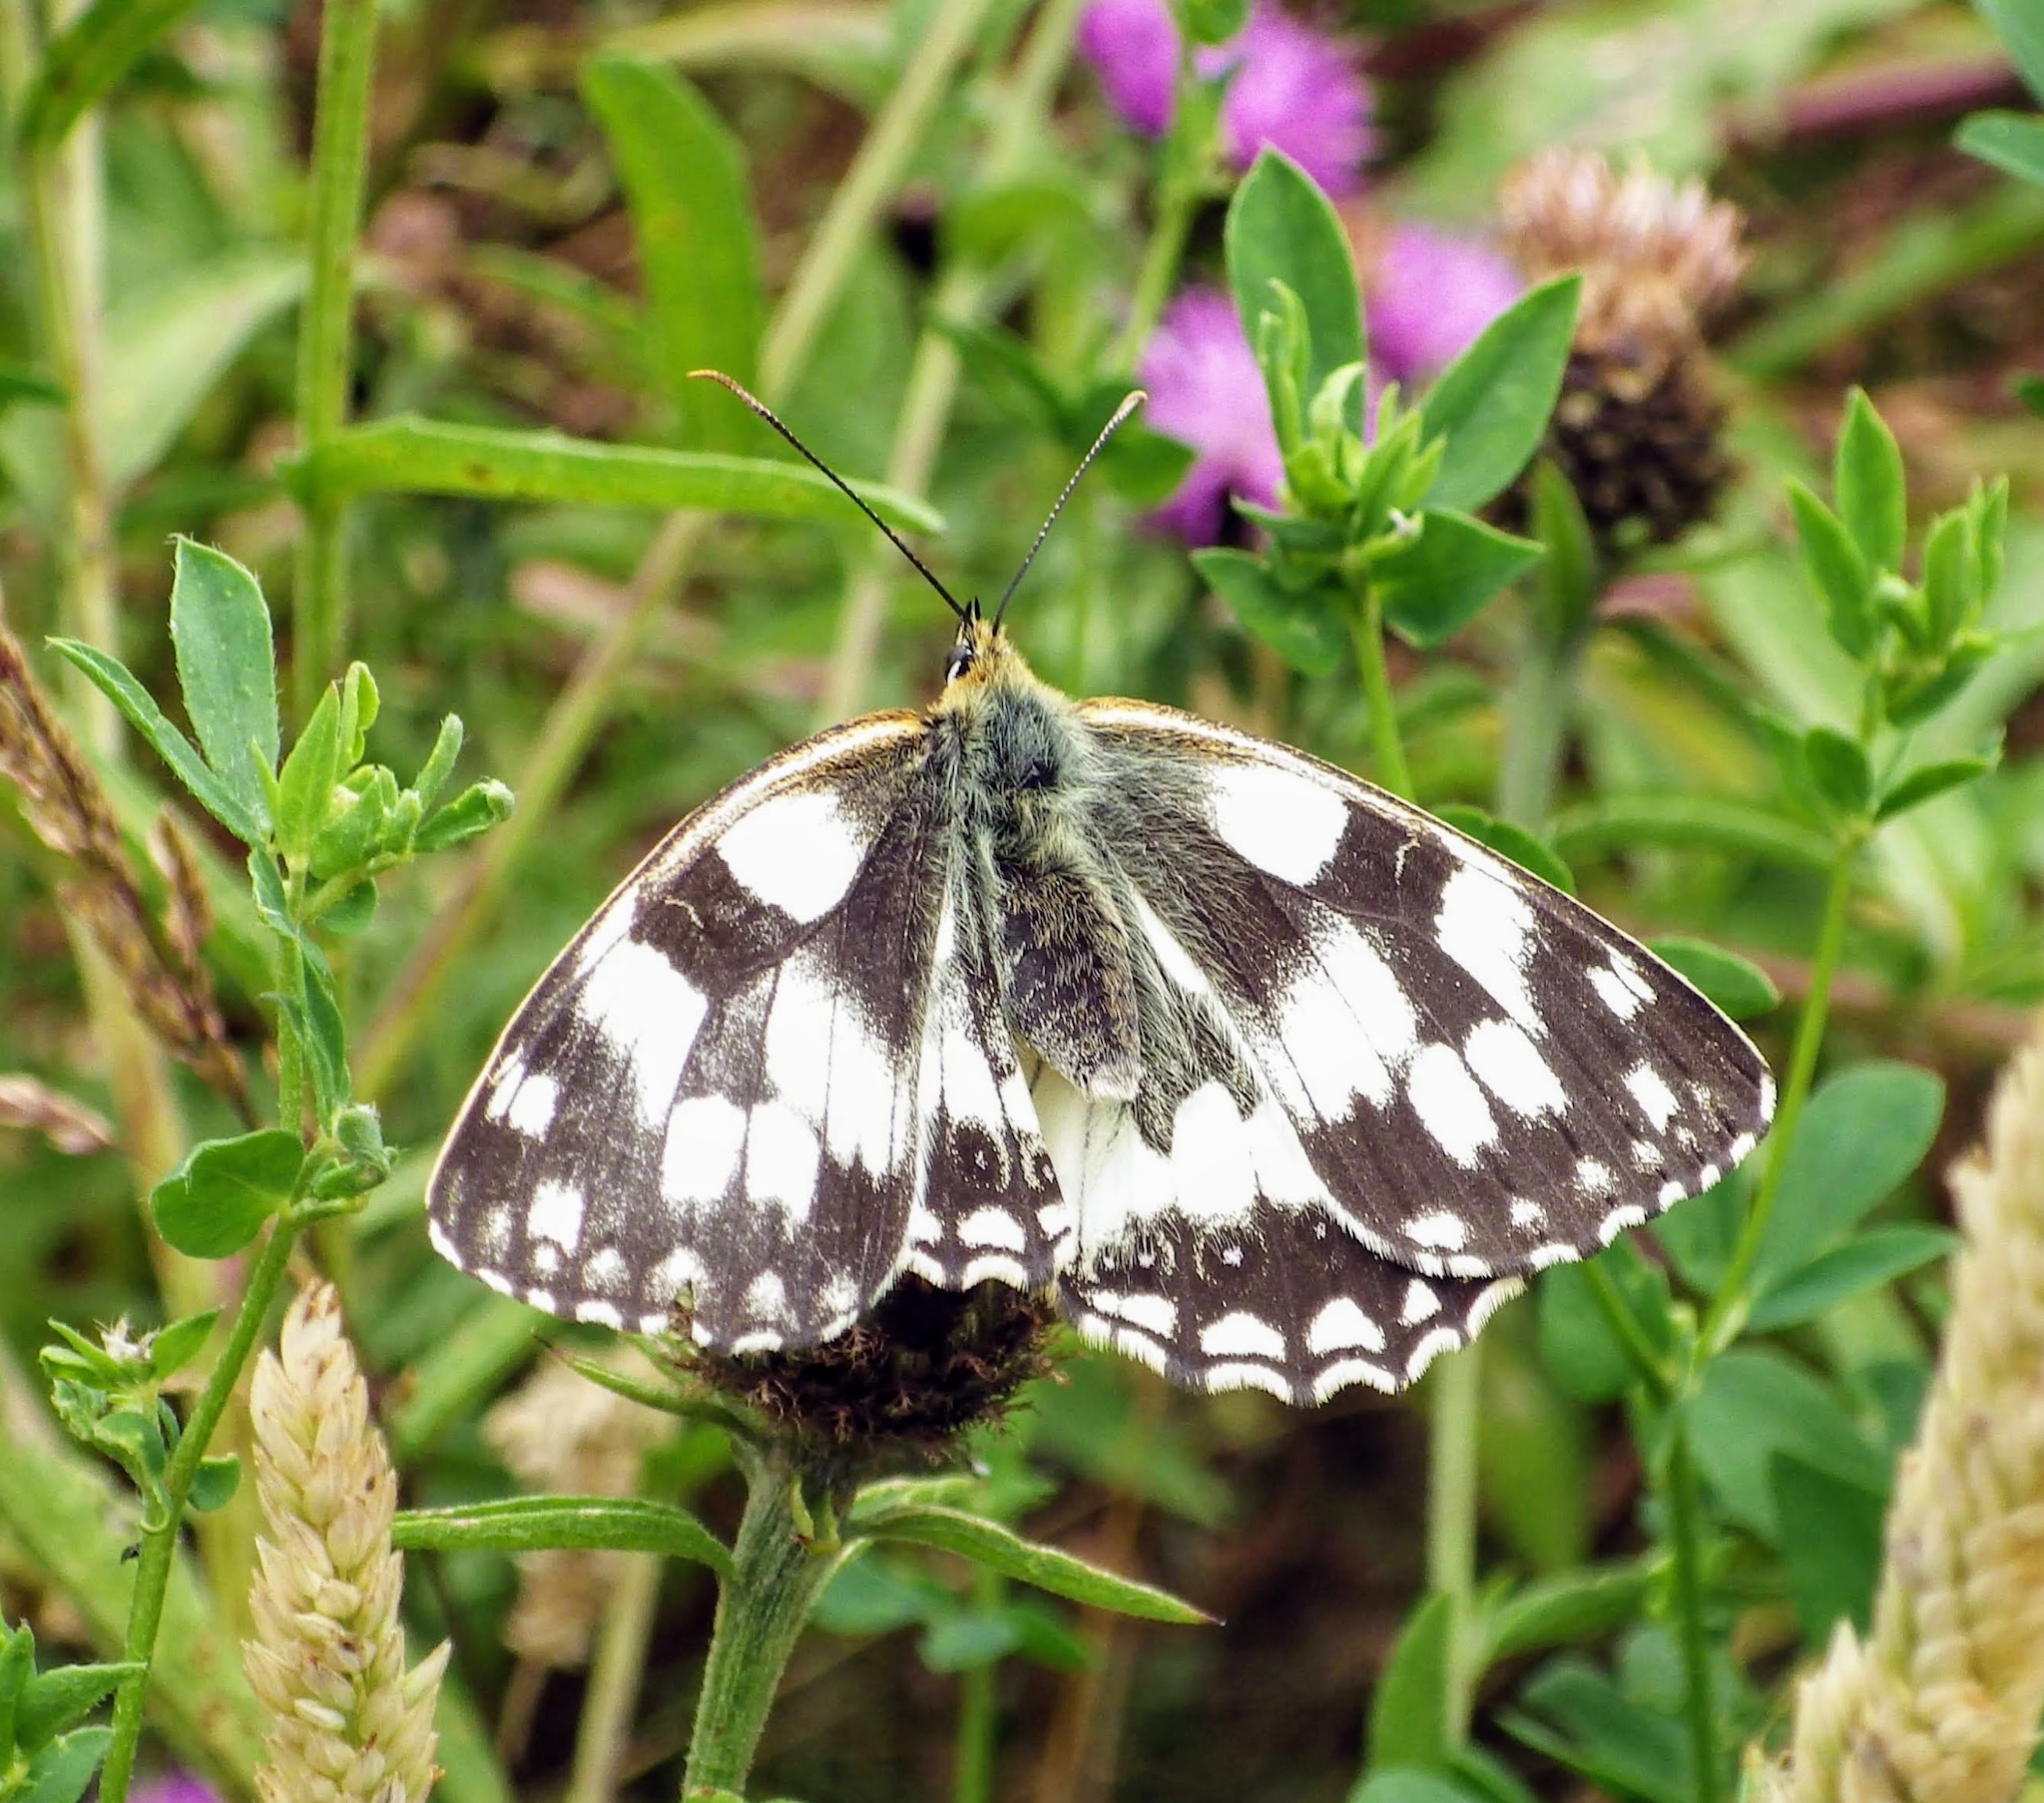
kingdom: Animalia
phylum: Arthropoda
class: Insecta
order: Lepidoptera
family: Nymphalidae
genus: Melanargia
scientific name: Melanargia galathea
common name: Marbled white
